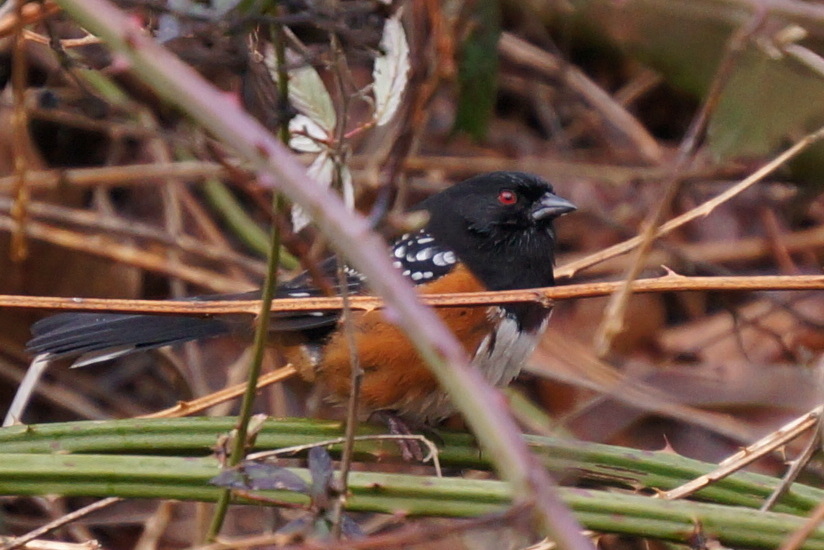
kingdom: Animalia
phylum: Chordata
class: Aves
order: Passeriformes
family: Passerellidae
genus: Pipilo
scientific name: Pipilo maculatus
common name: Spotted towhee
